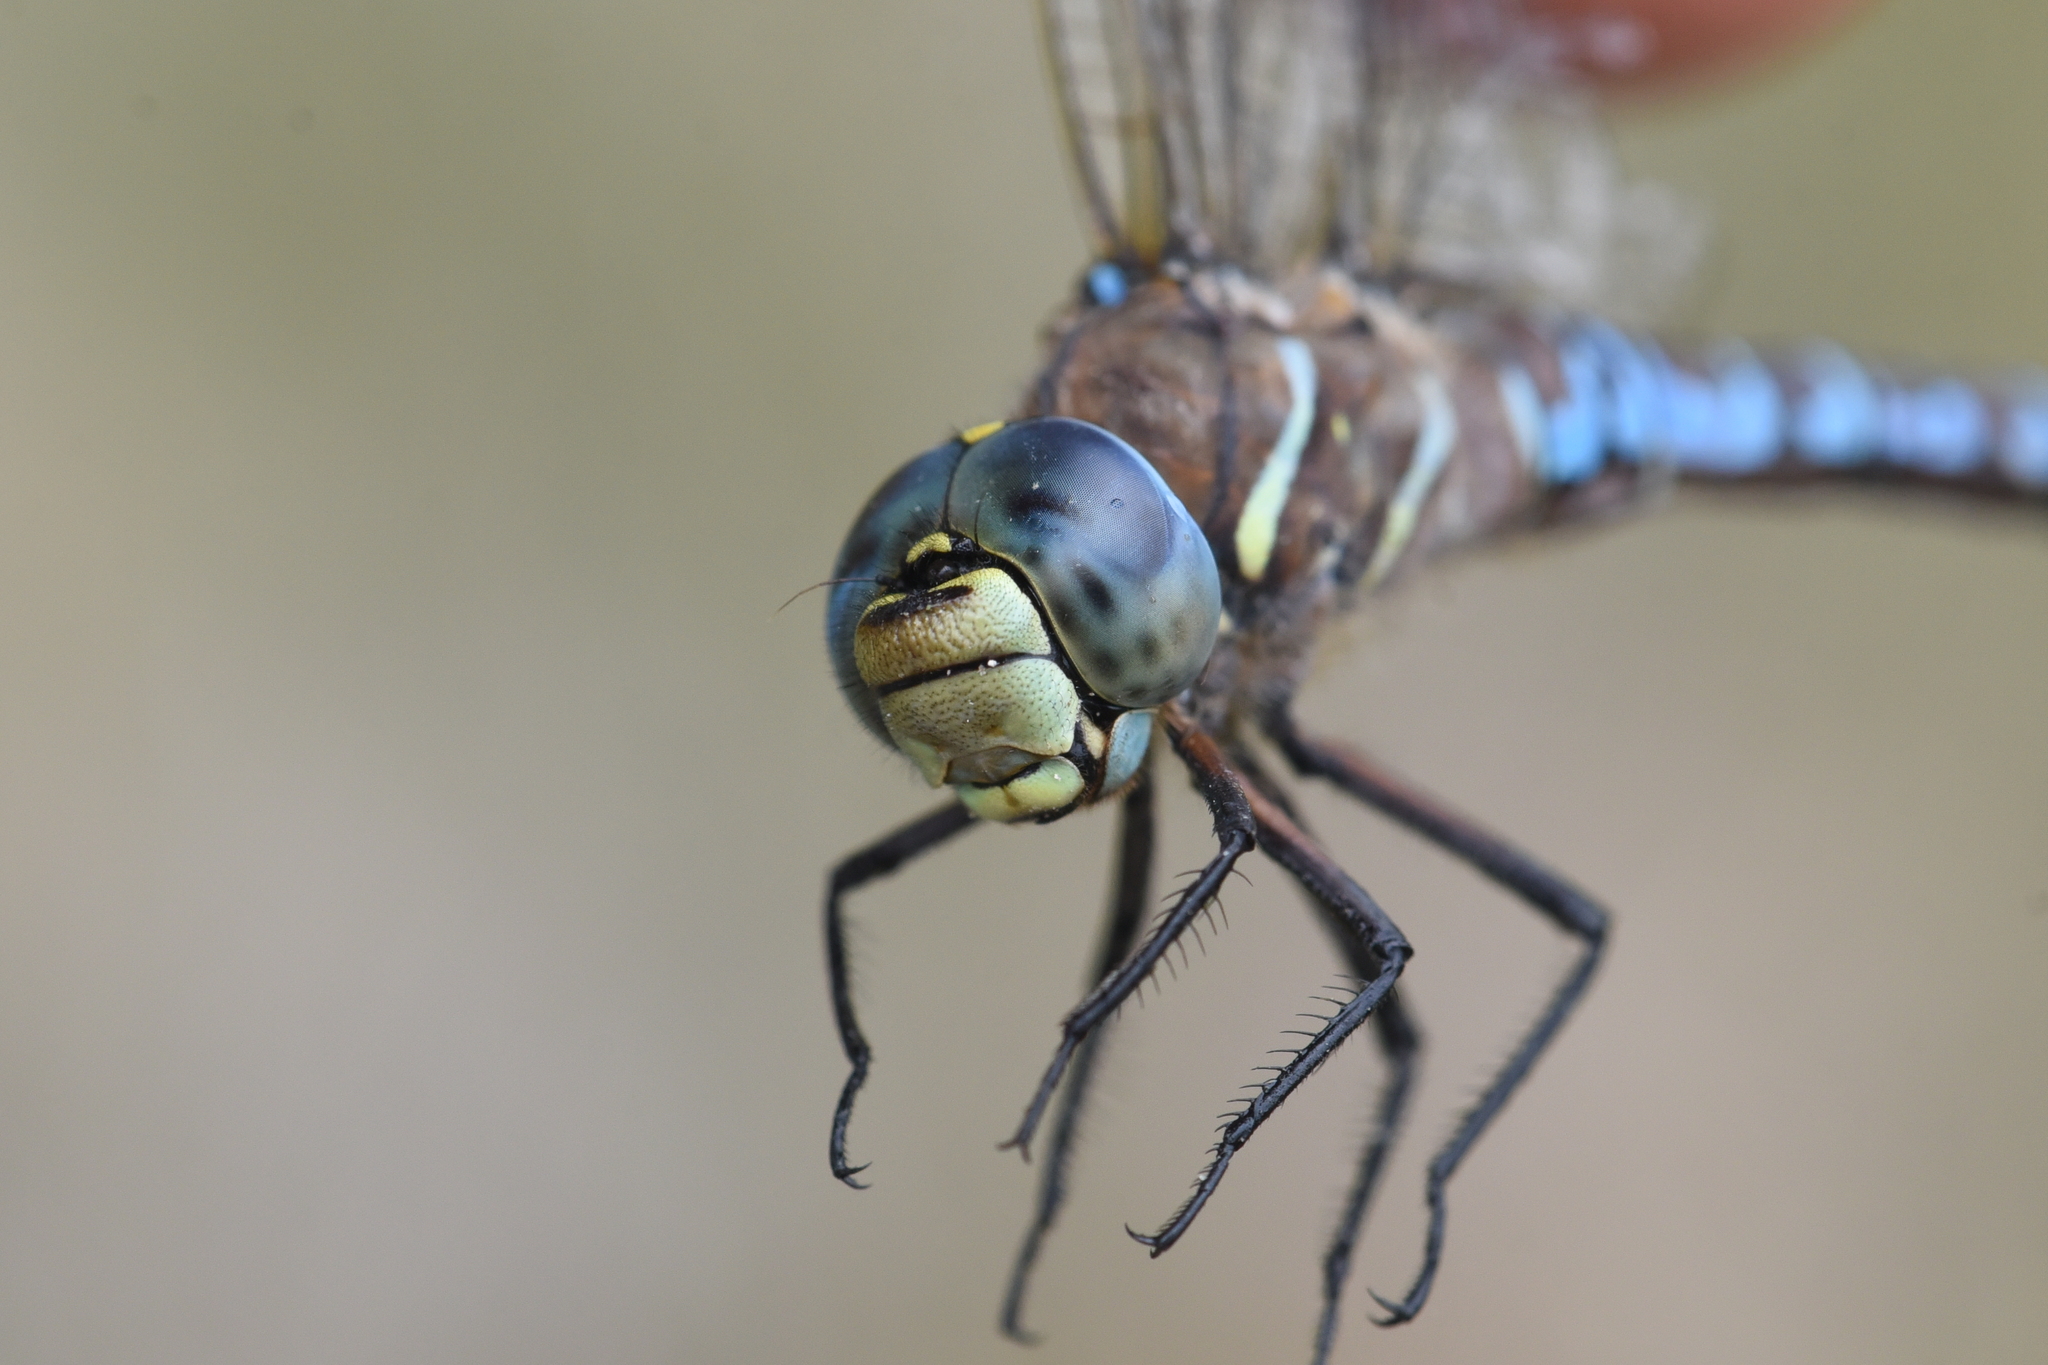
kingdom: Animalia
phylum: Arthropoda
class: Insecta
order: Odonata
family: Aeshnidae
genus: Aeshna
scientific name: Aeshna interrupta
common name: Variable darner
